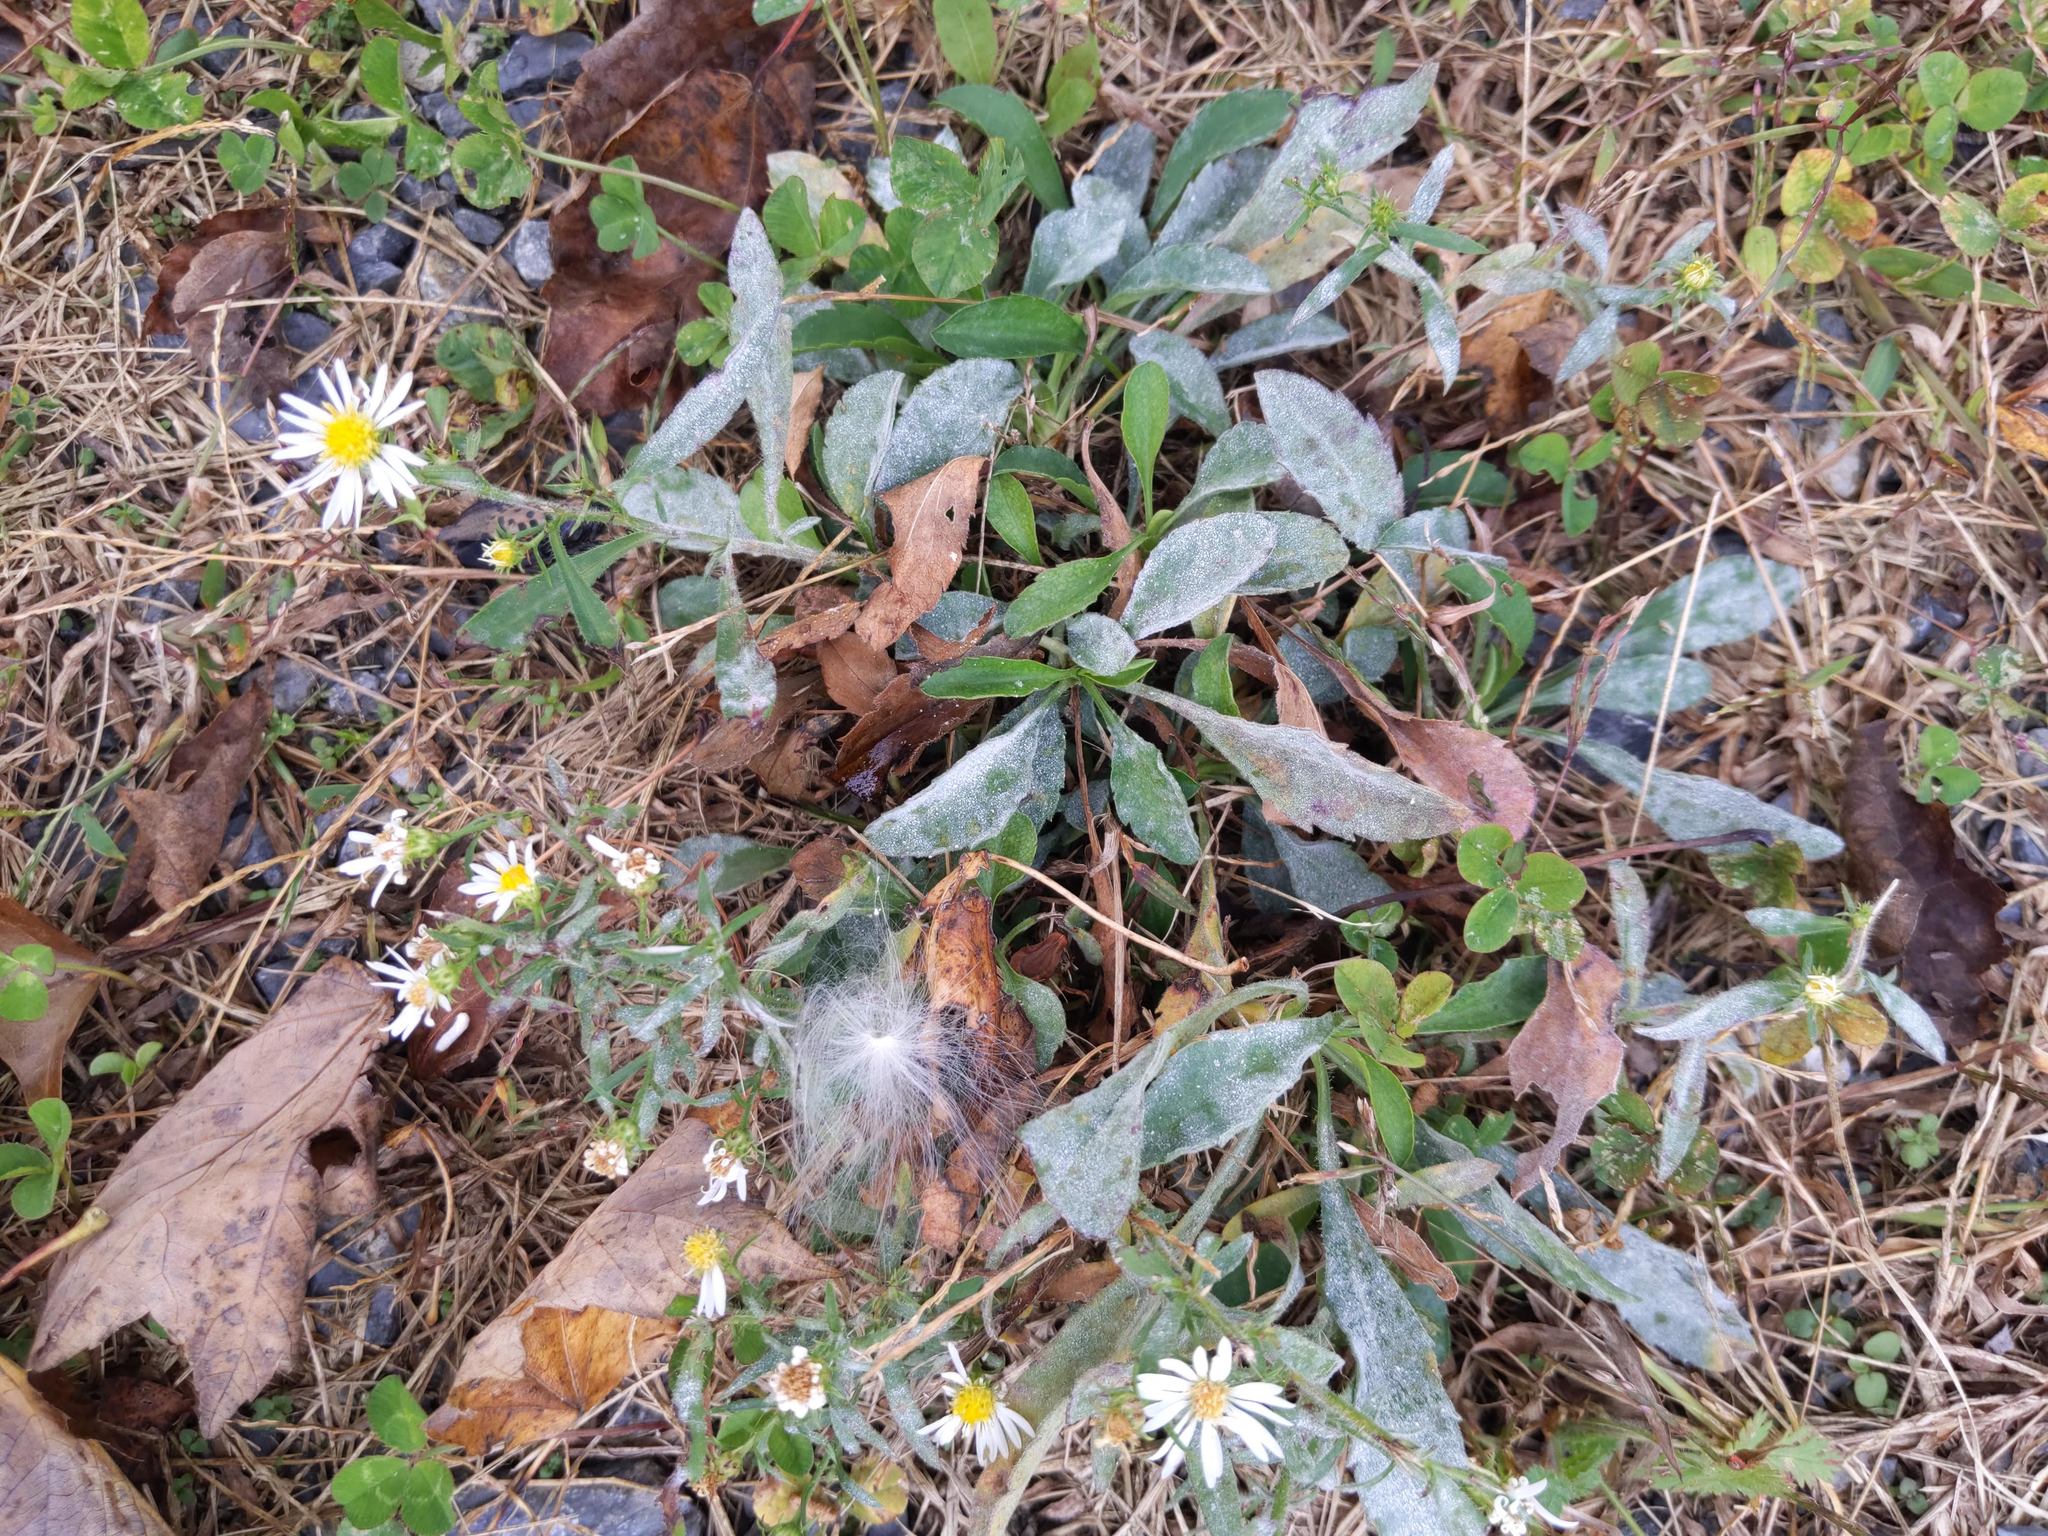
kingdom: Fungi
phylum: Ascomycota
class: Leotiomycetes
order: Helotiales
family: Erysiphaceae
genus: Golovinomyces
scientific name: Golovinomyces asterum
